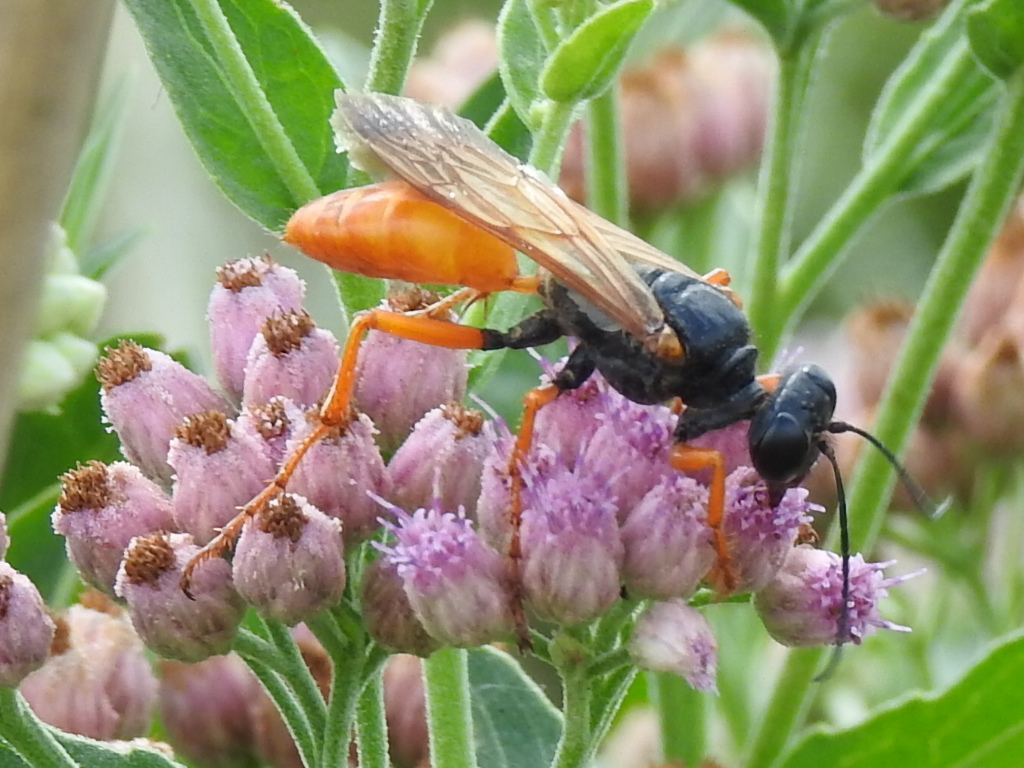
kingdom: Animalia
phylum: Arthropoda
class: Insecta
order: Hymenoptera
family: Sphecidae
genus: Sphex
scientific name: Sphex ashmeadi
